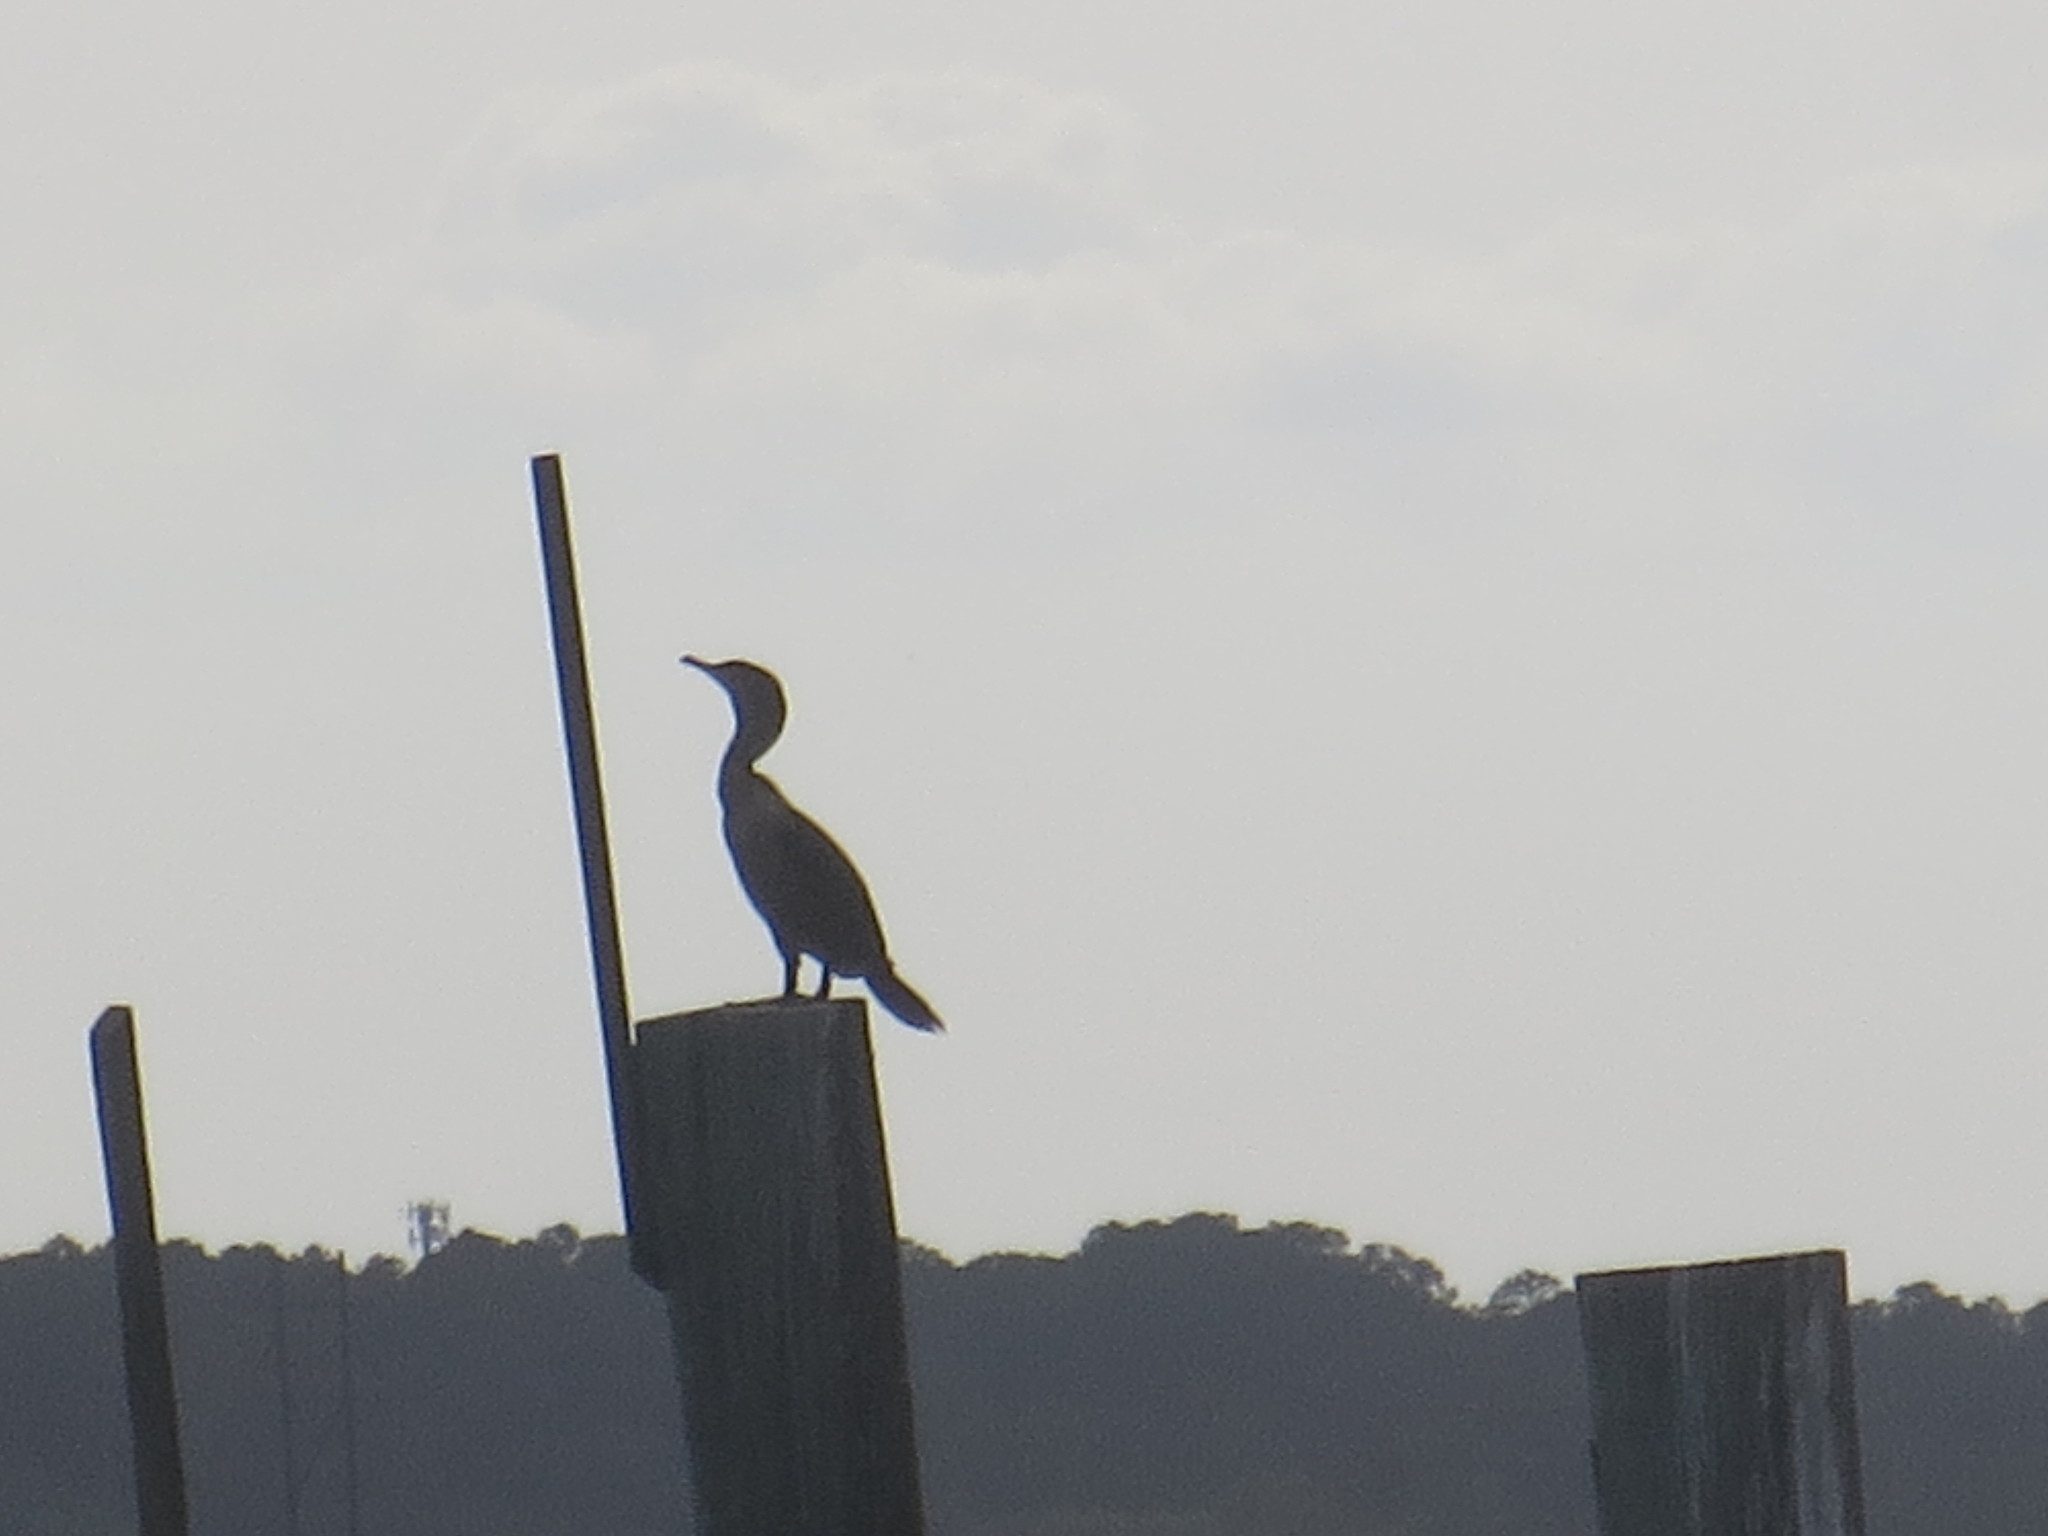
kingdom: Animalia
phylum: Chordata
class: Aves
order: Suliformes
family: Phalacrocoracidae
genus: Phalacrocorax
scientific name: Phalacrocorax auritus
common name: Double-crested cormorant
